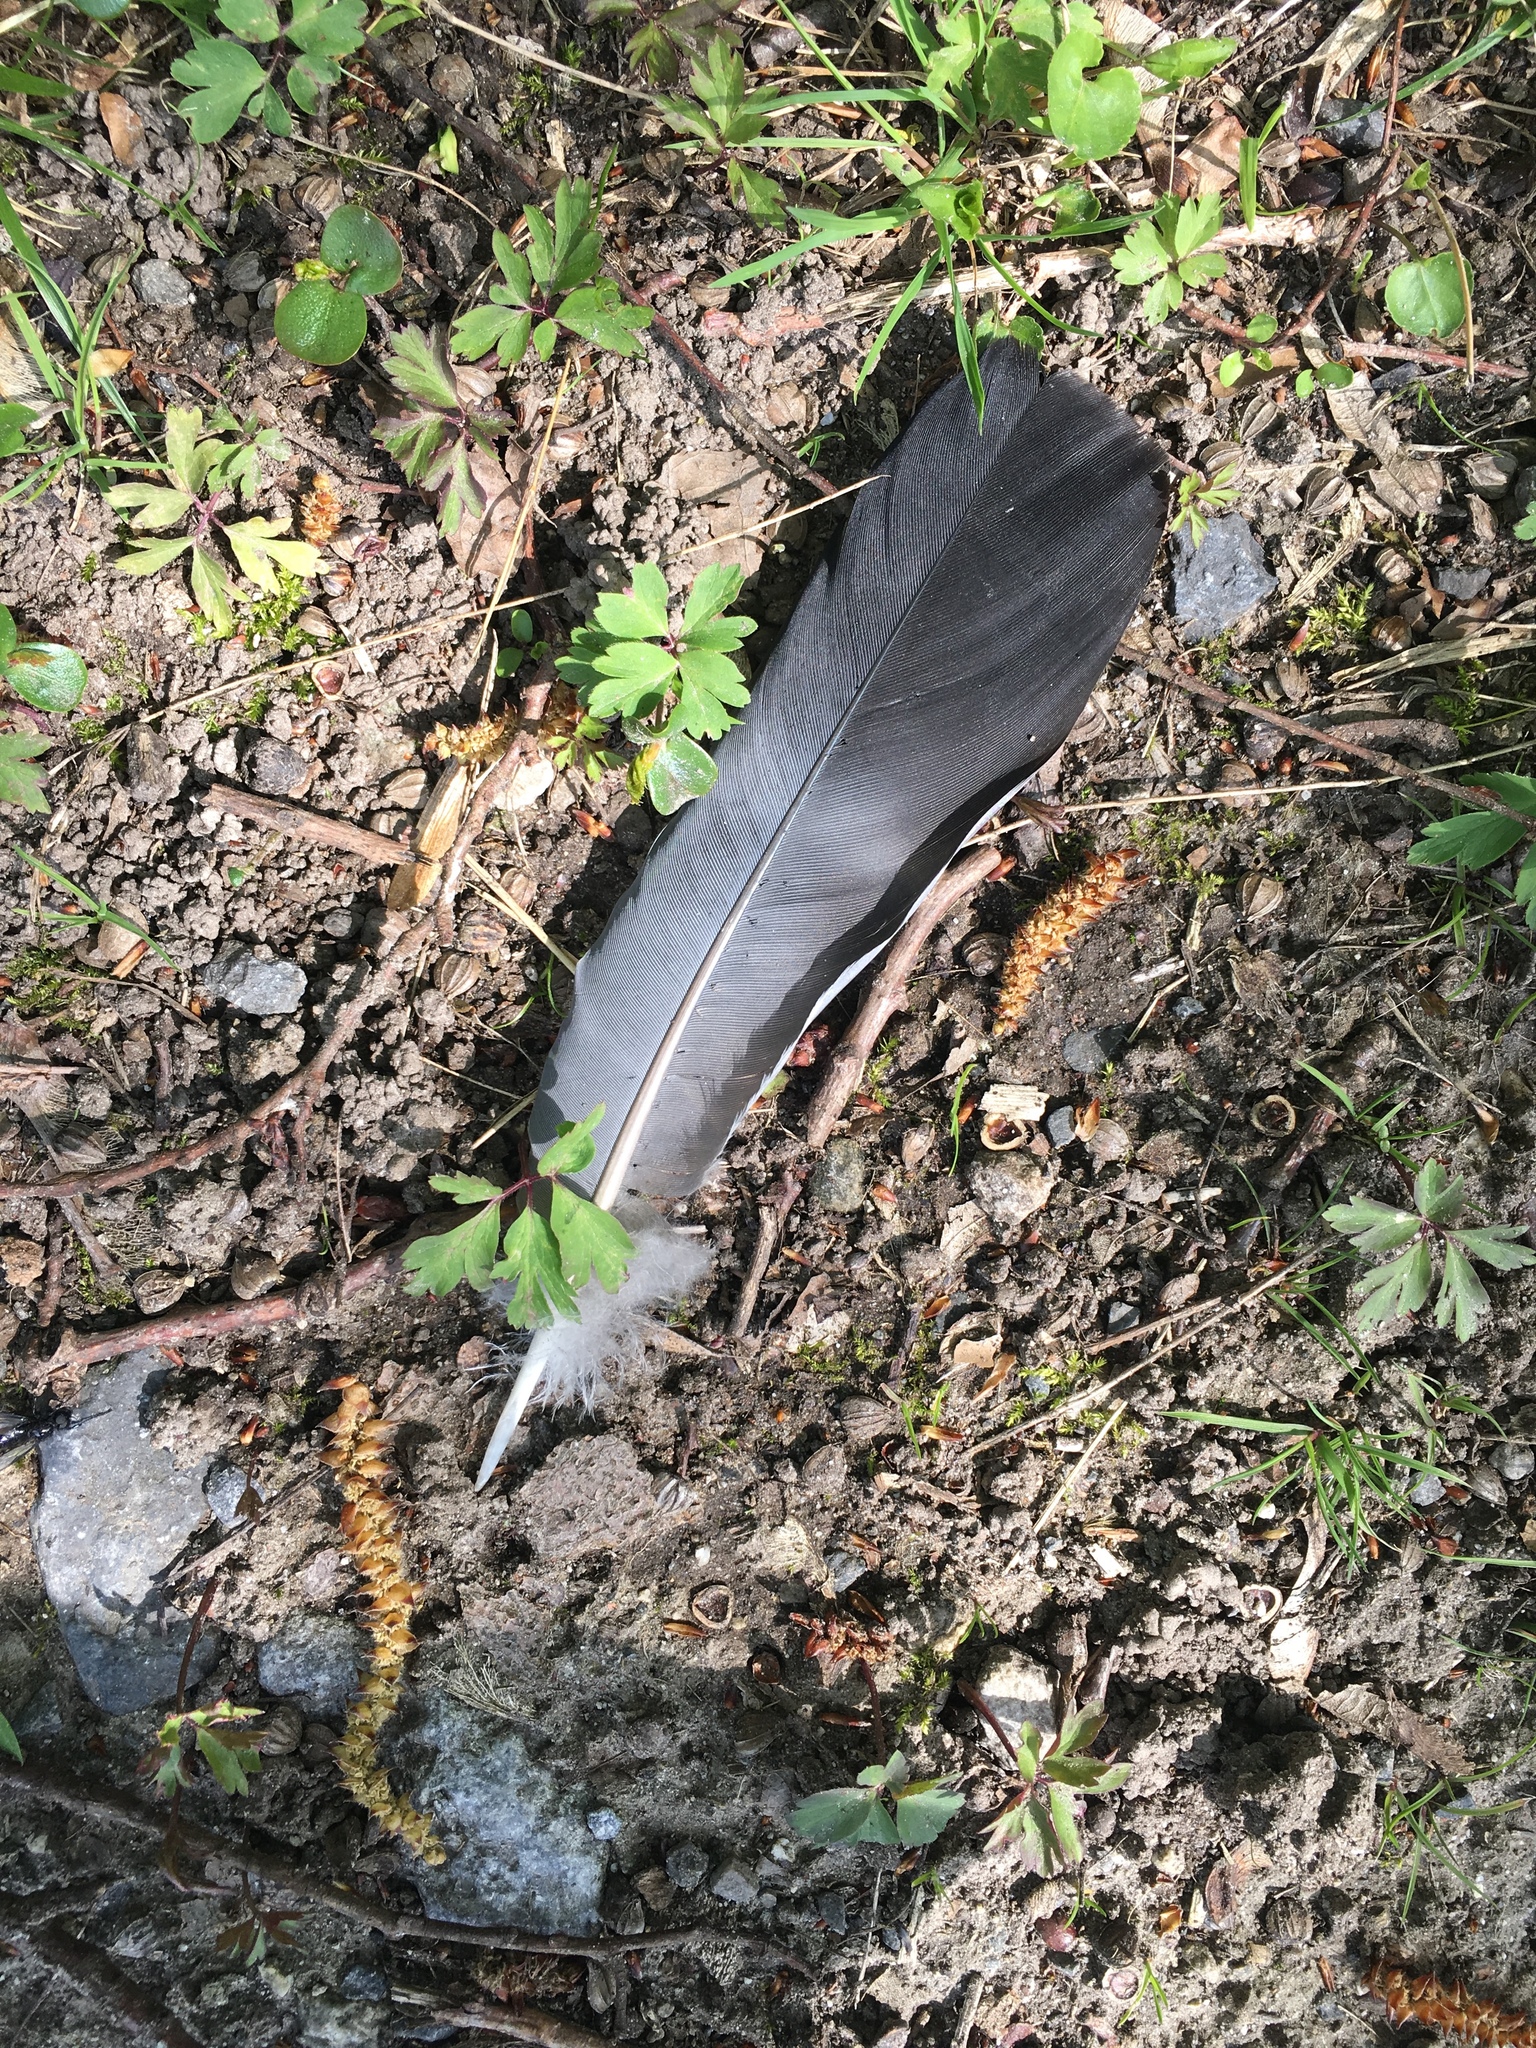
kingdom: Animalia
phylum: Chordata
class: Aves
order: Columbiformes
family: Columbidae
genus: Columba
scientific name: Columba oenas
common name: Stock dove
